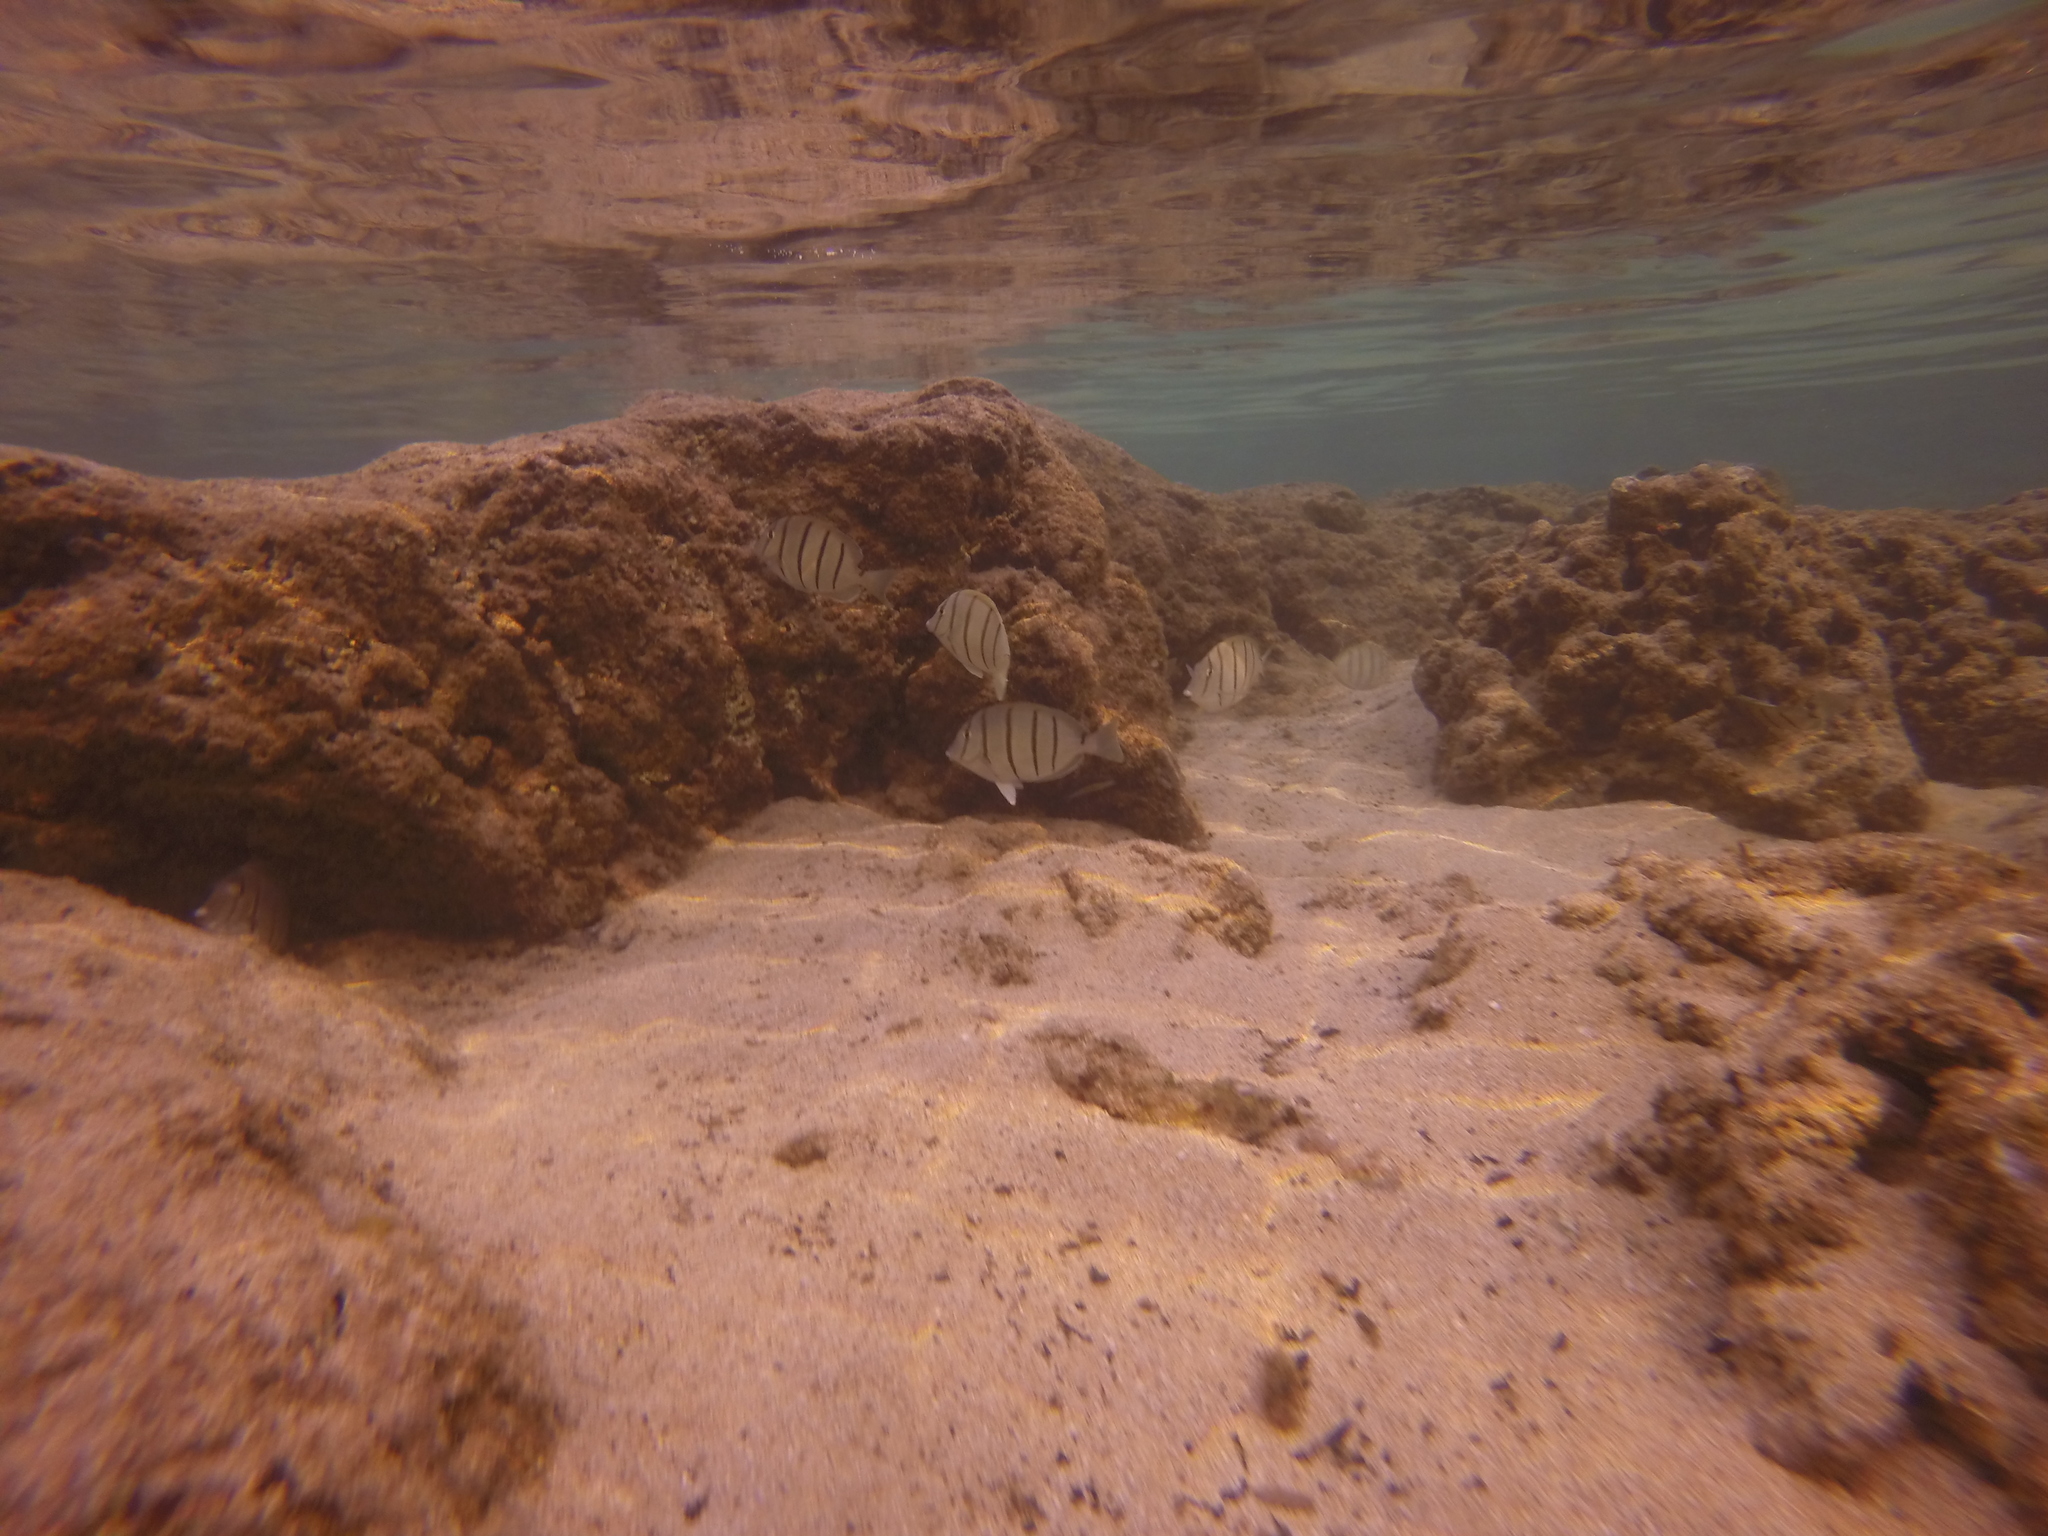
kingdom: Animalia
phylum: Chordata
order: Perciformes
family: Acanthuridae
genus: Acanthurus
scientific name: Acanthurus triostegus
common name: Convict surgeonfish
